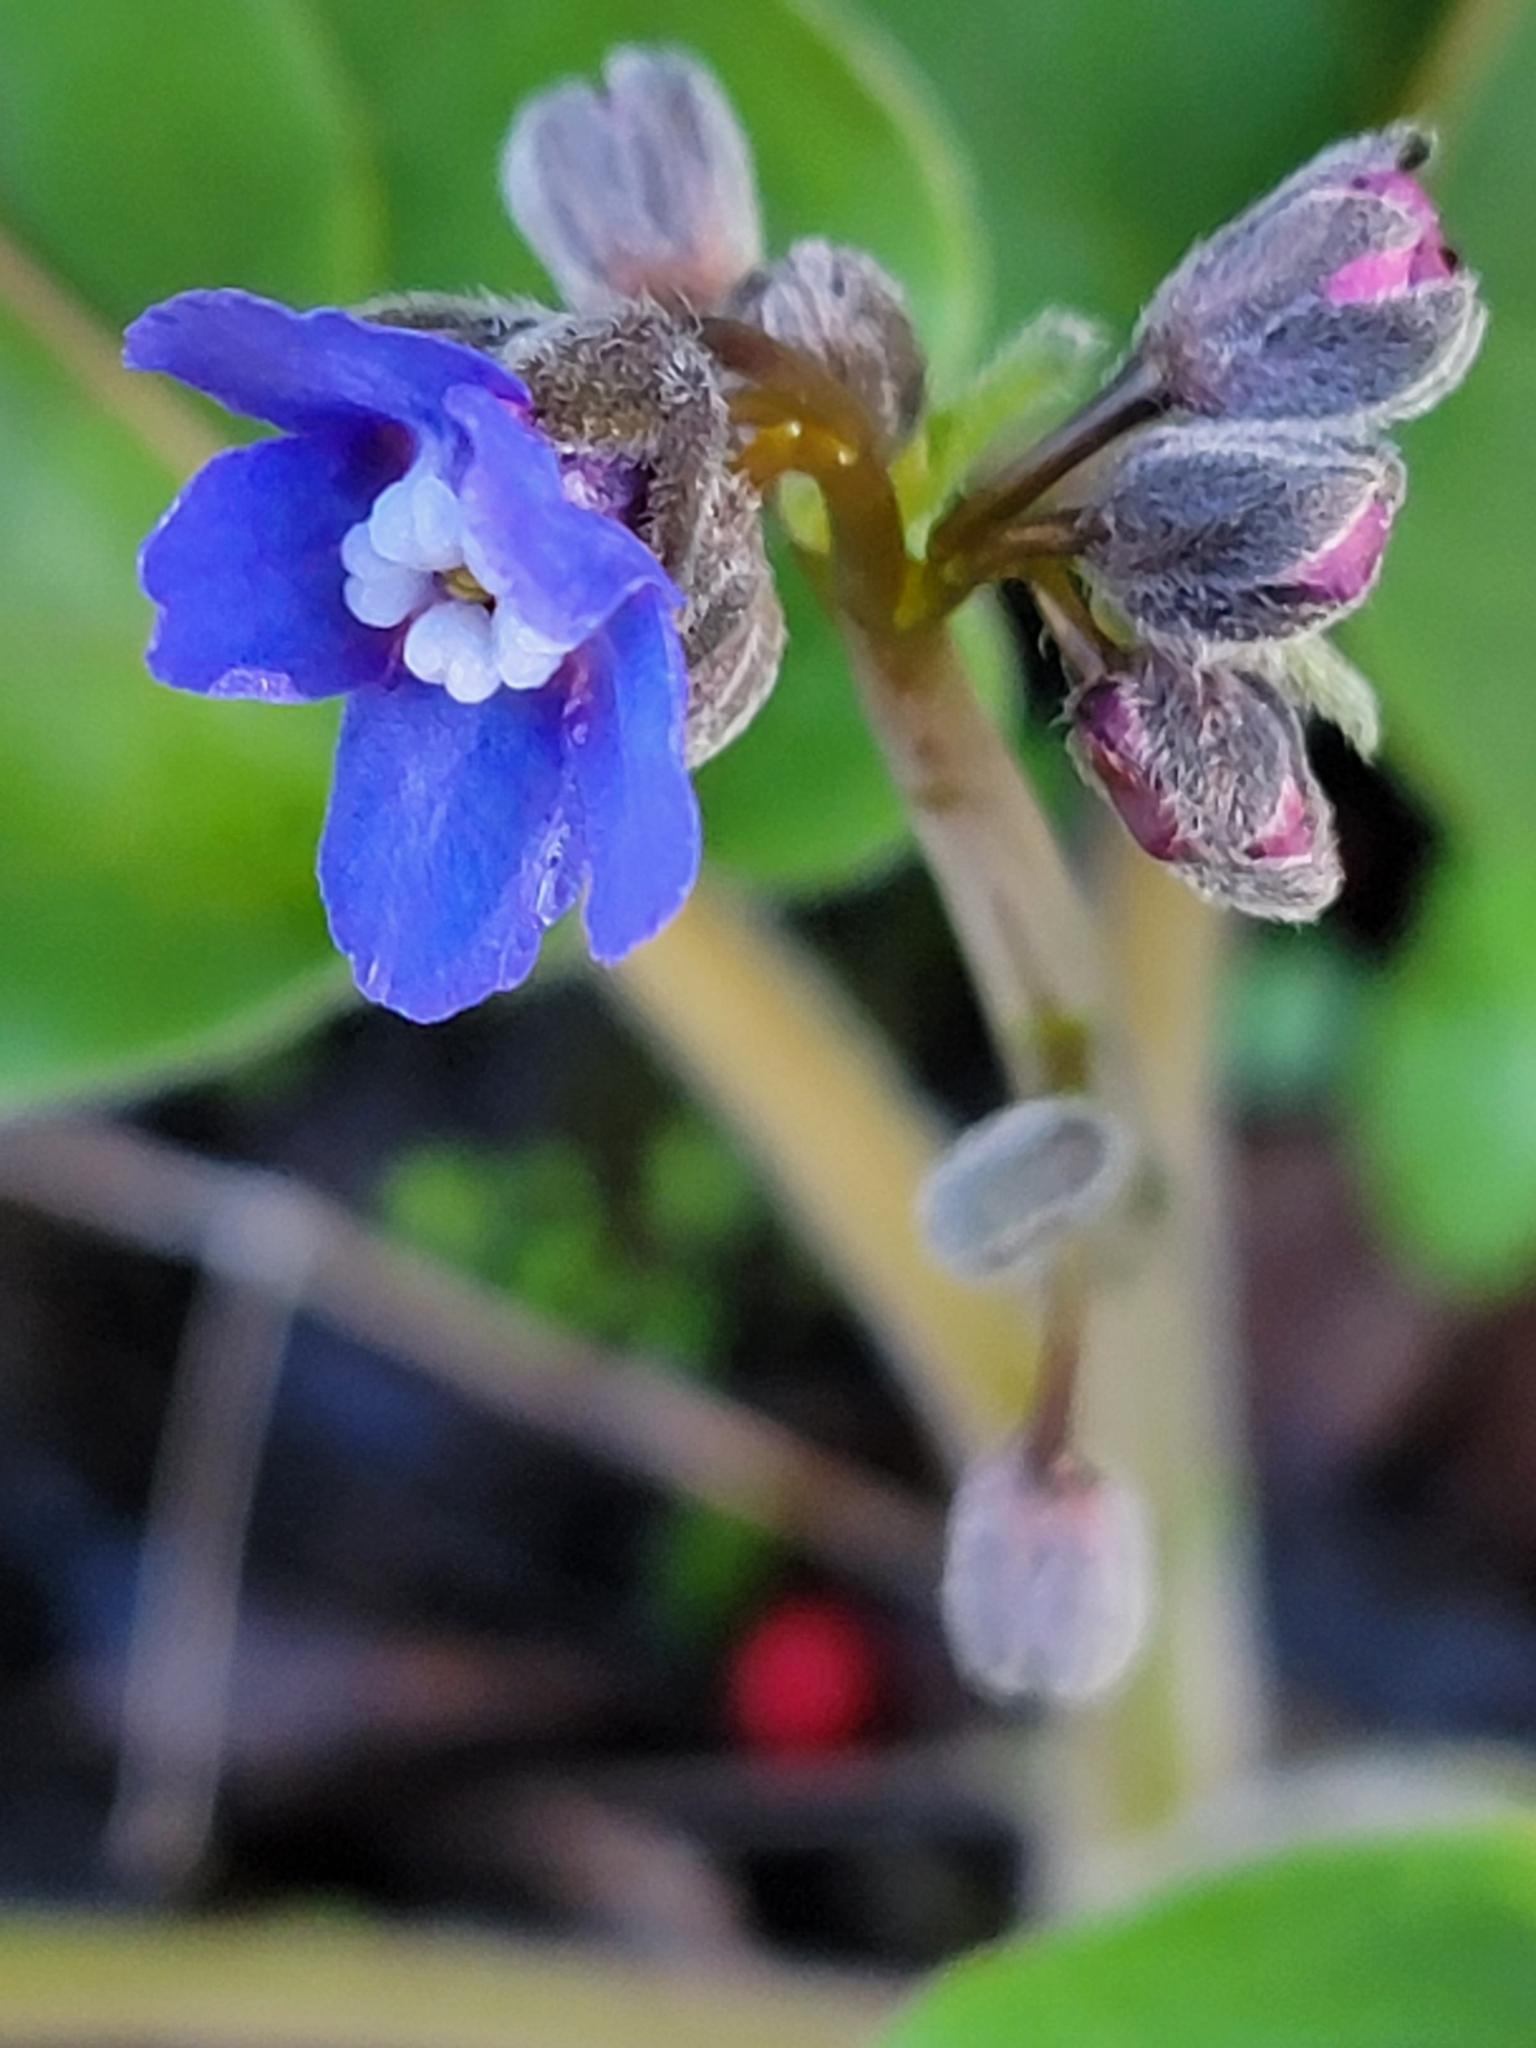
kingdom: Plantae
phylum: Tracheophyta
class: Magnoliopsida
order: Boraginales
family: Boraginaceae
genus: Adelinia
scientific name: Adelinia grande
